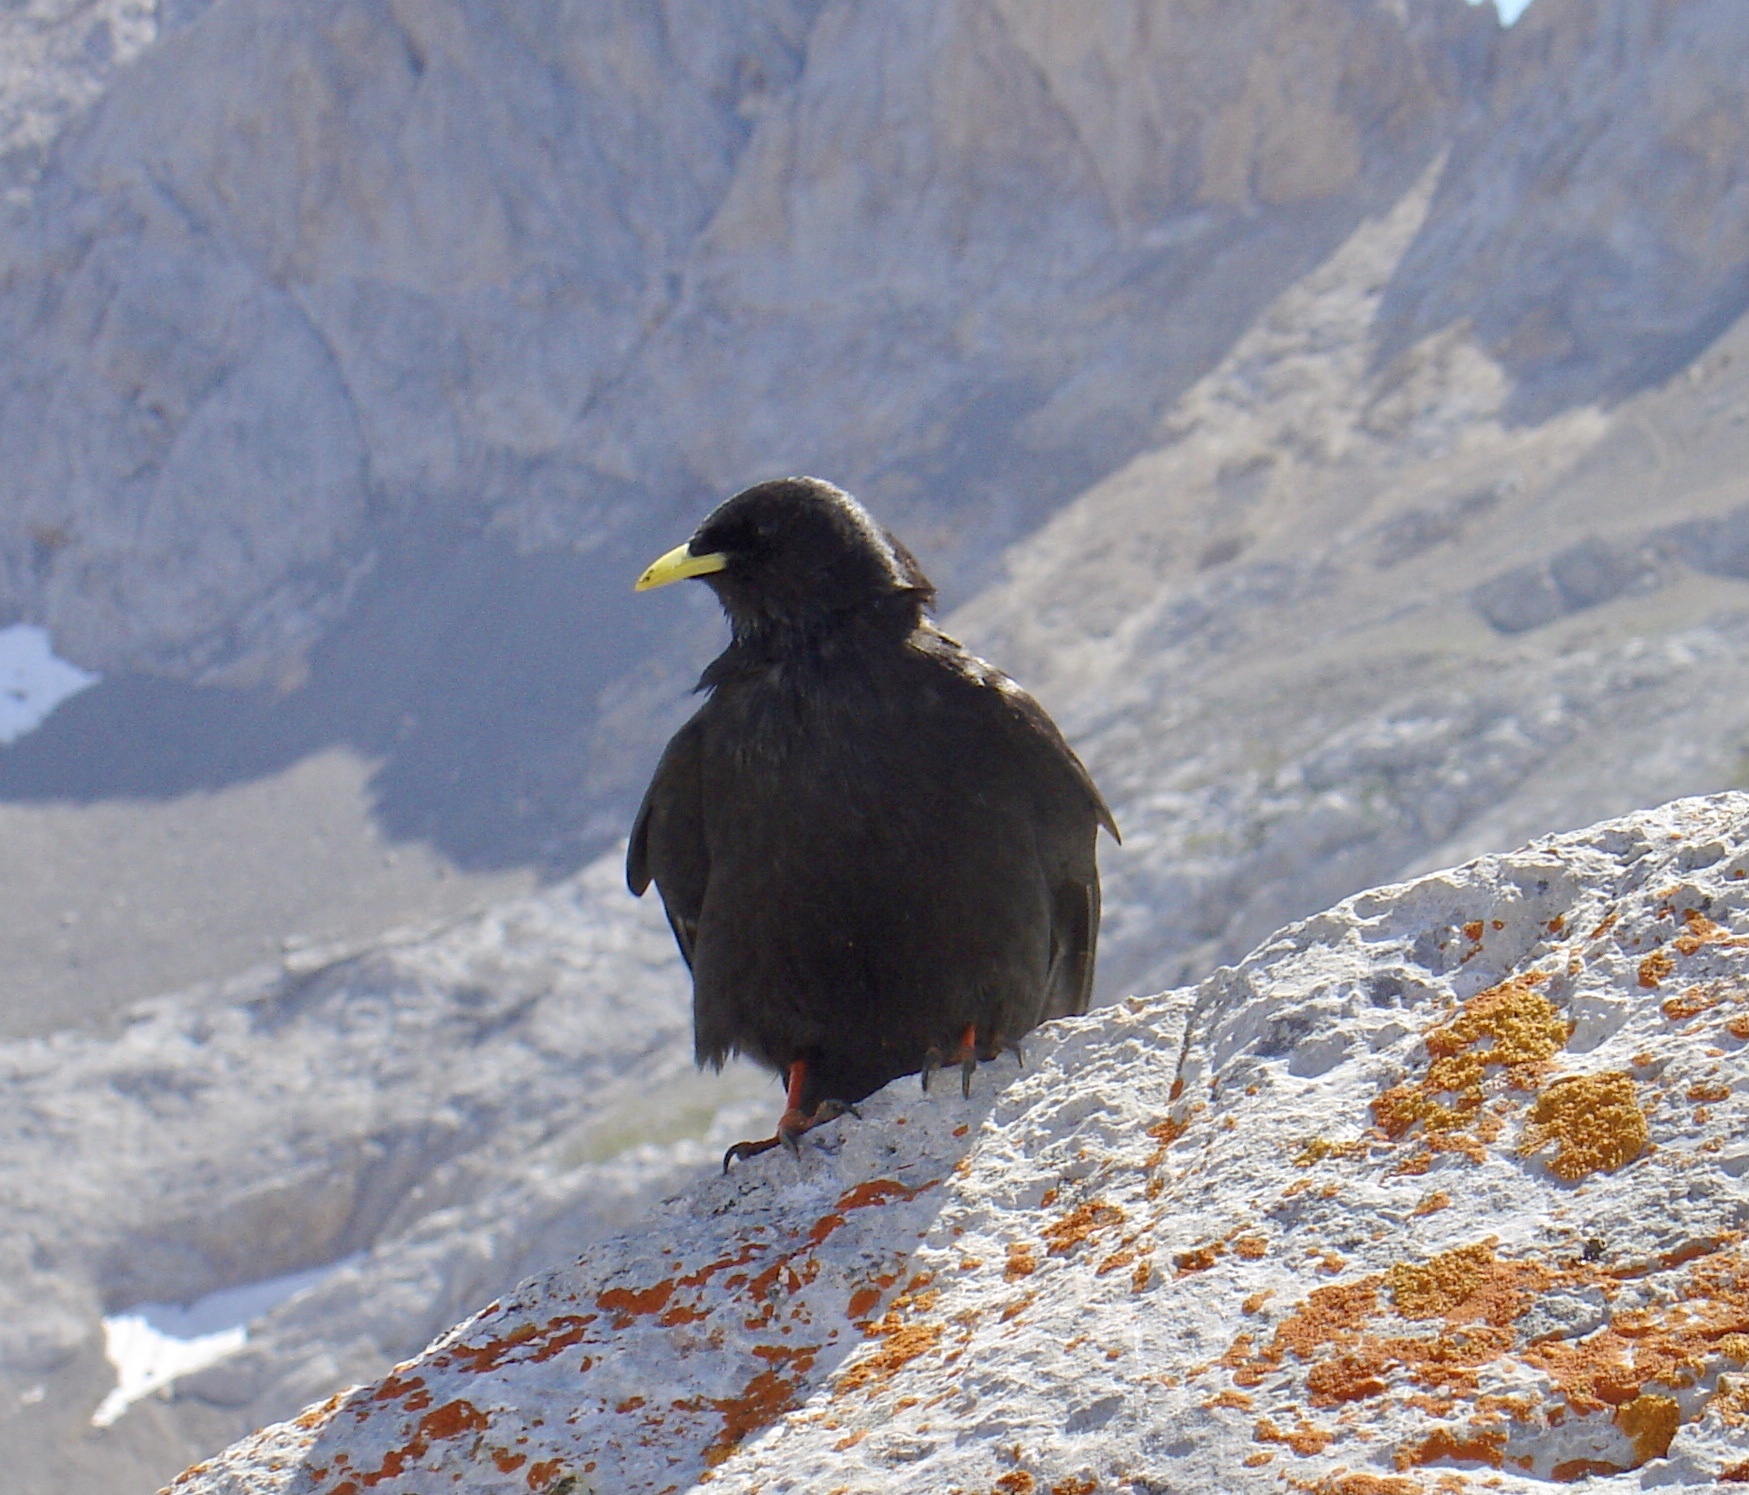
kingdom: Animalia
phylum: Chordata
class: Aves
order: Passeriformes
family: Corvidae
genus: Pyrrhocorax
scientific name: Pyrrhocorax graculus
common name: Alpine chough
